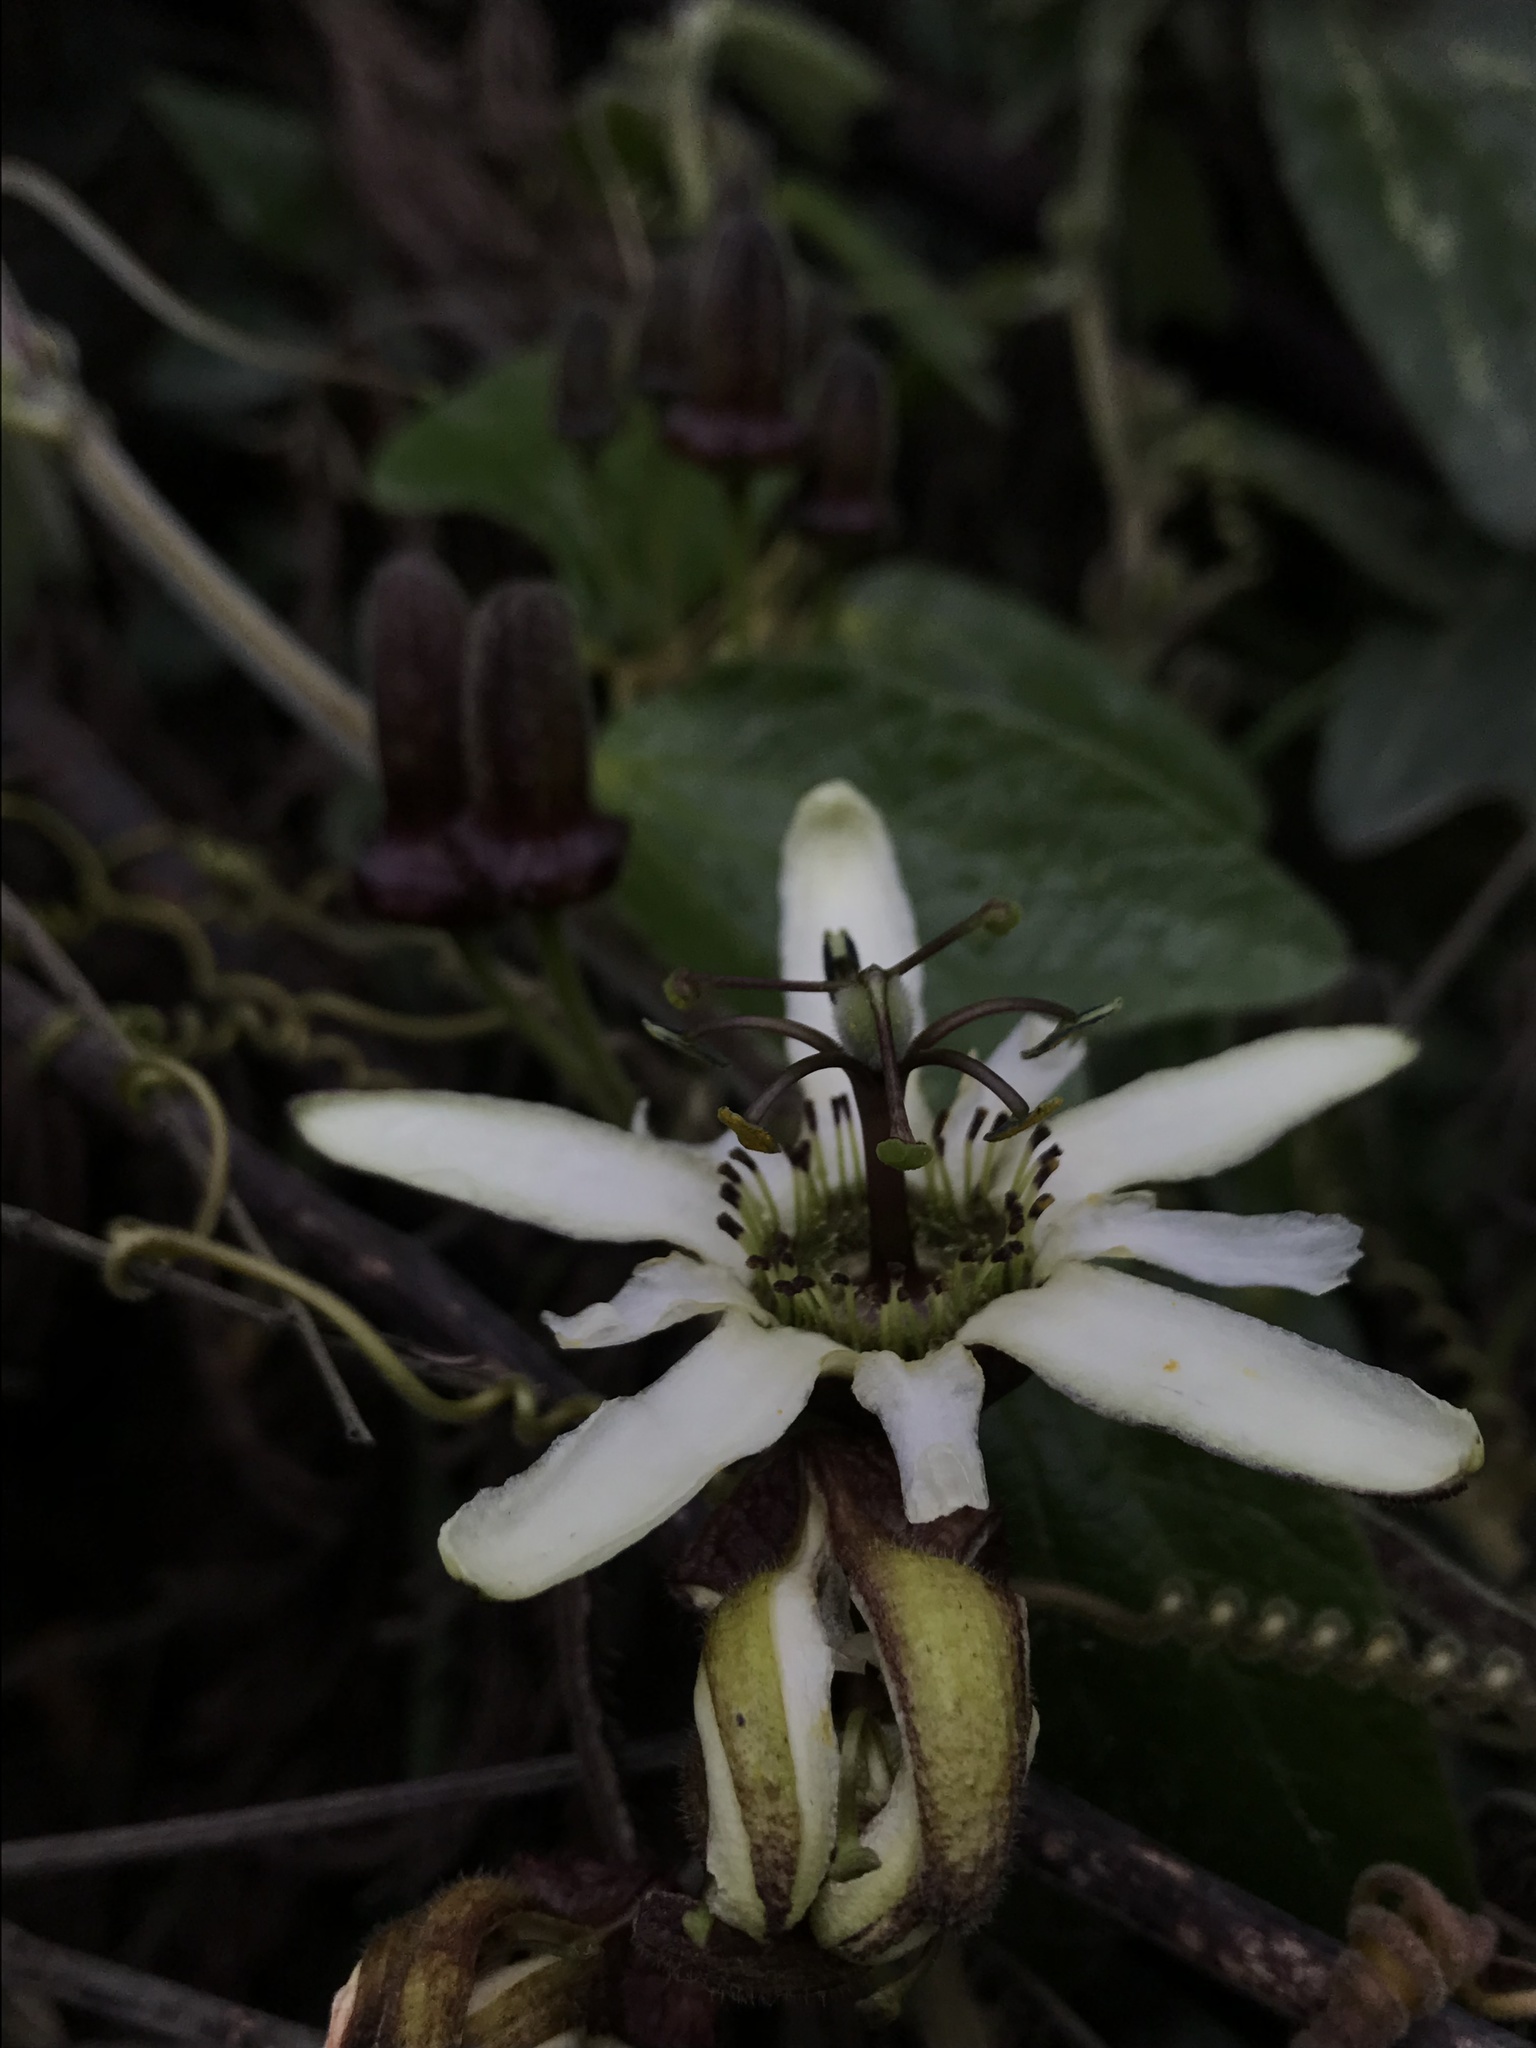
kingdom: Plantae
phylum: Tracheophyta
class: Magnoliopsida
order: Malpighiales
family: Passifloraceae
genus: Passiflora
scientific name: Passiflora bogotensis
